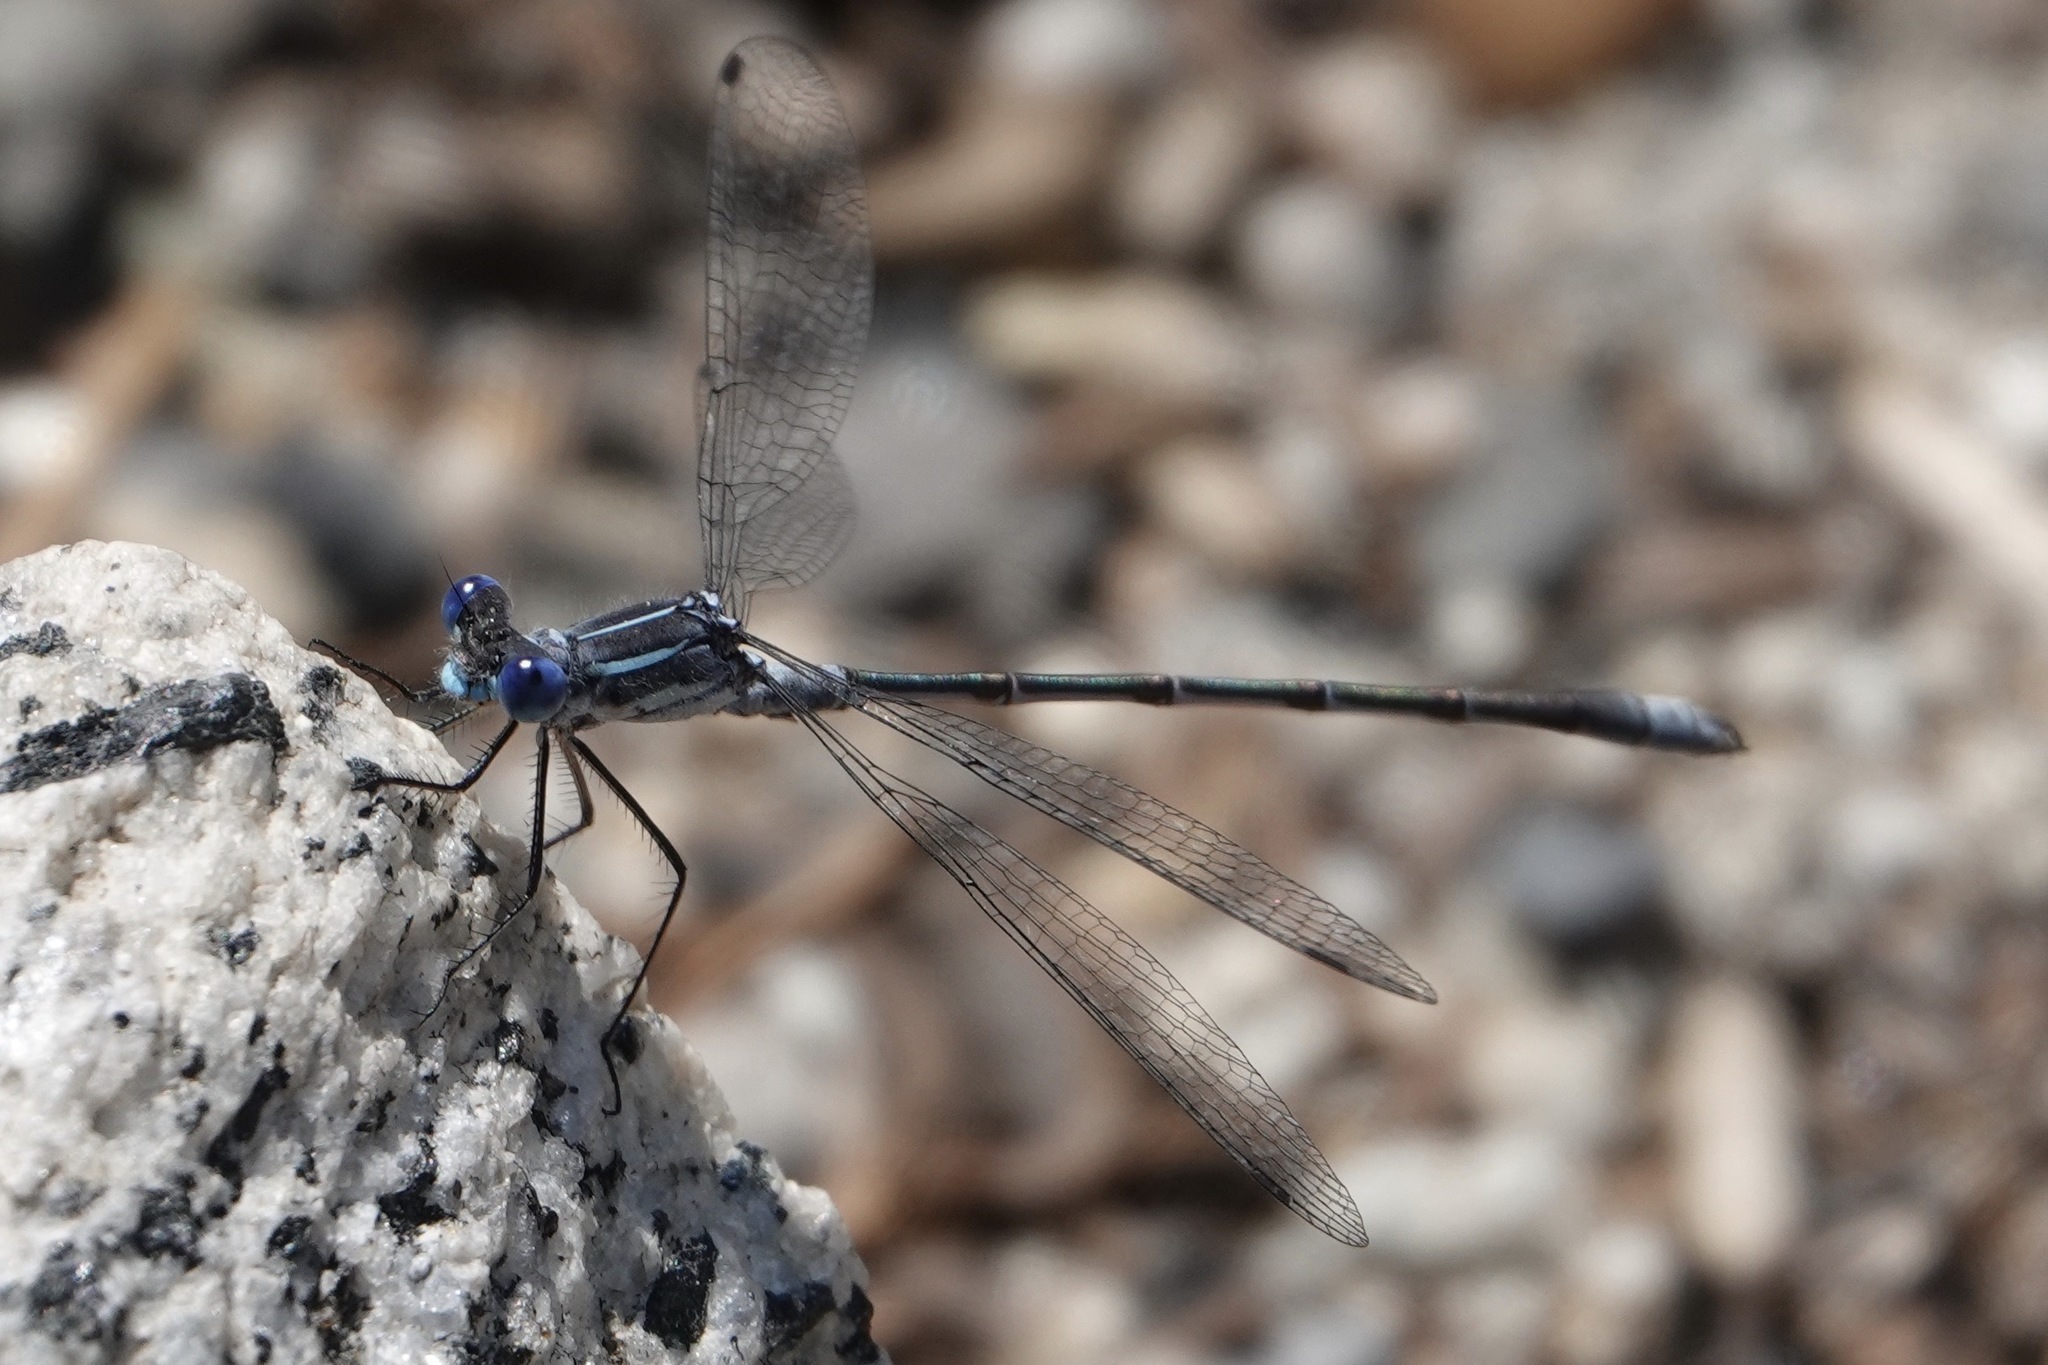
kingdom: Animalia
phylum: Arthropoda
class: Insecta
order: Odonata
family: Lestidae
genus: Lestes
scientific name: Lestes disjunctus
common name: Northern spreadwing
